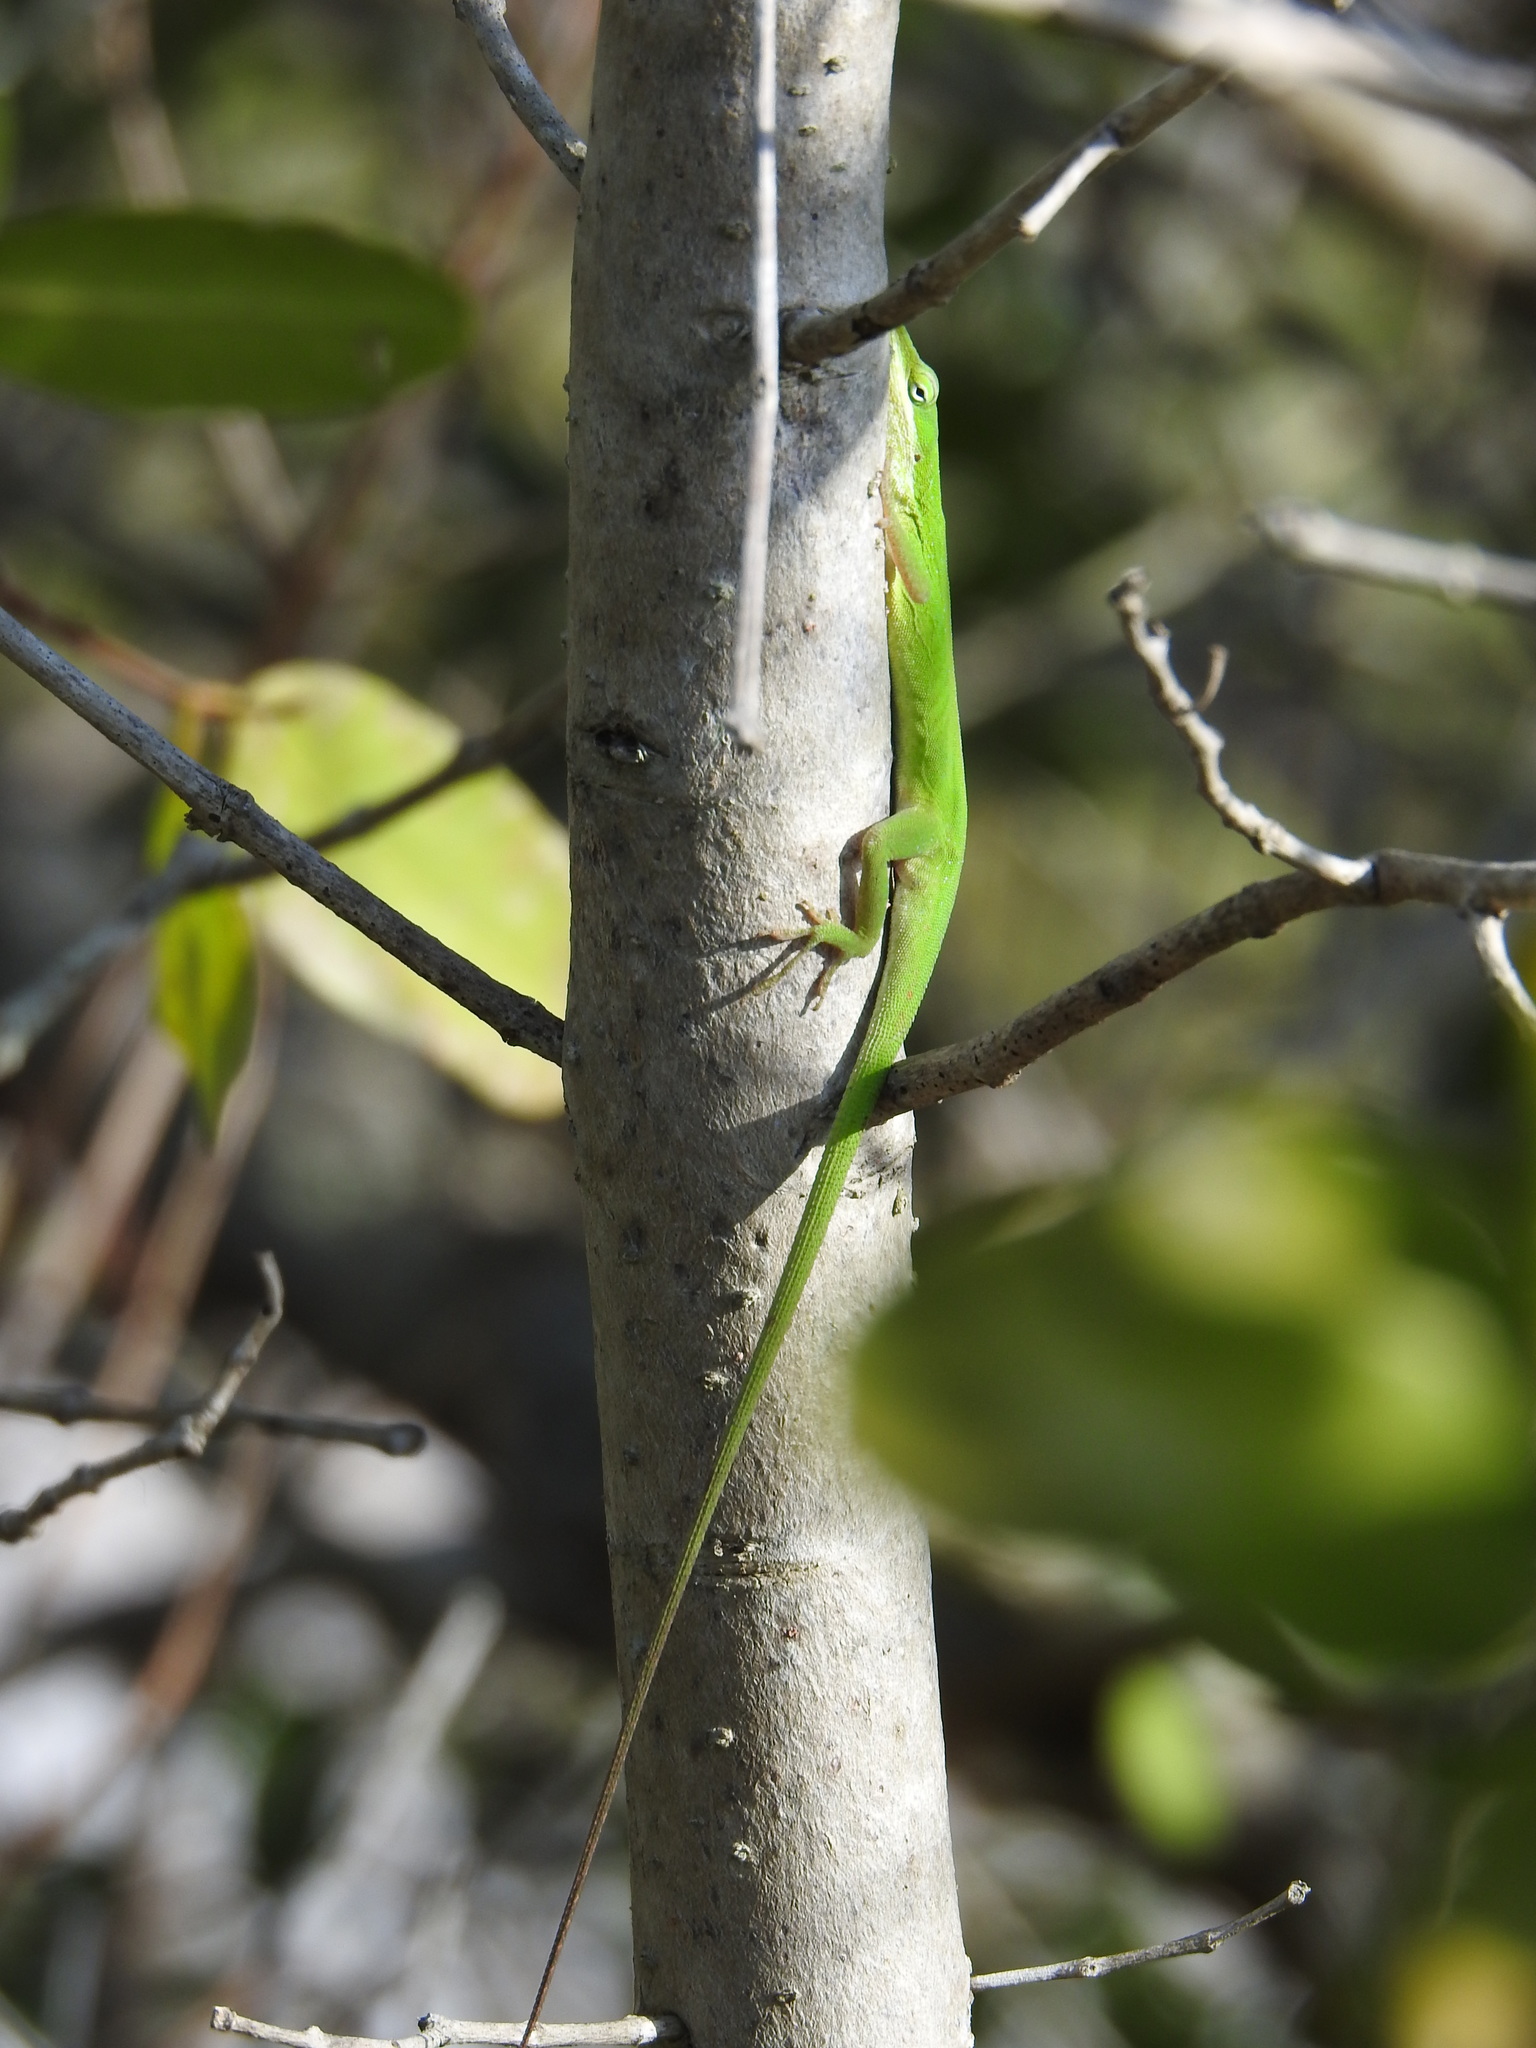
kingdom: Animalia
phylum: Chordata
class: Squamata
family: Dactyloidae
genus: Anolis
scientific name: Anolis carolinensis
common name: Green anole
